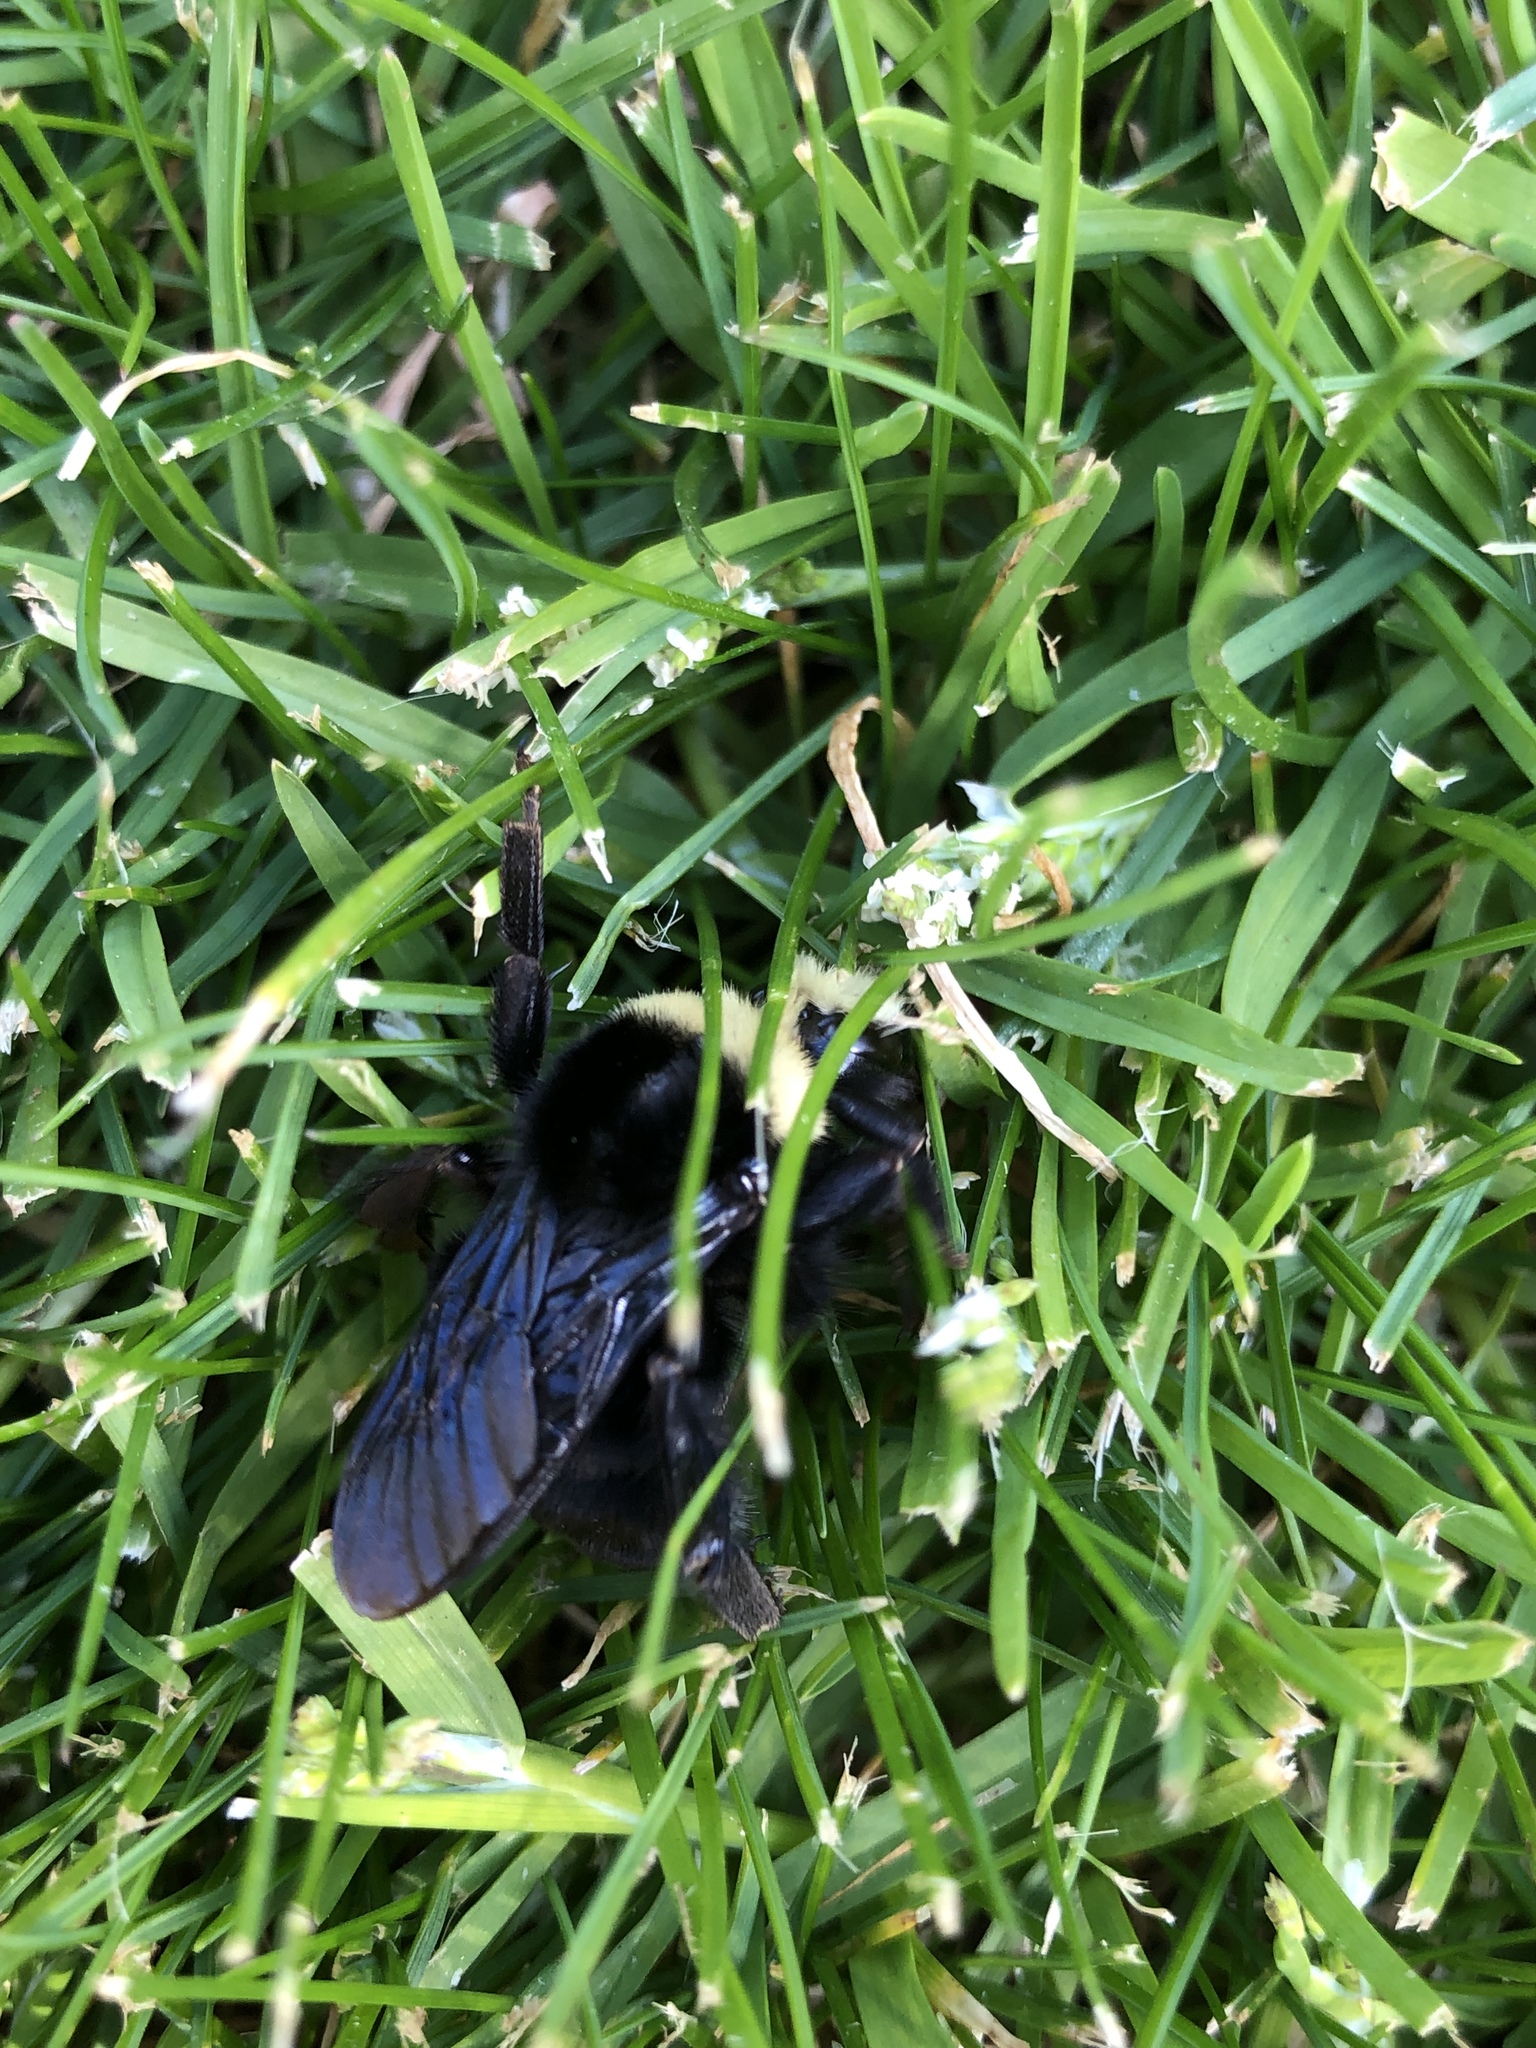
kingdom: Animalia
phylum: Arthropoda
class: Insecta
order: Hymenoptera
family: Apidae
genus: Bombus
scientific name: Bombus vosnesenskii
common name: Vosnesensky bumble bee
